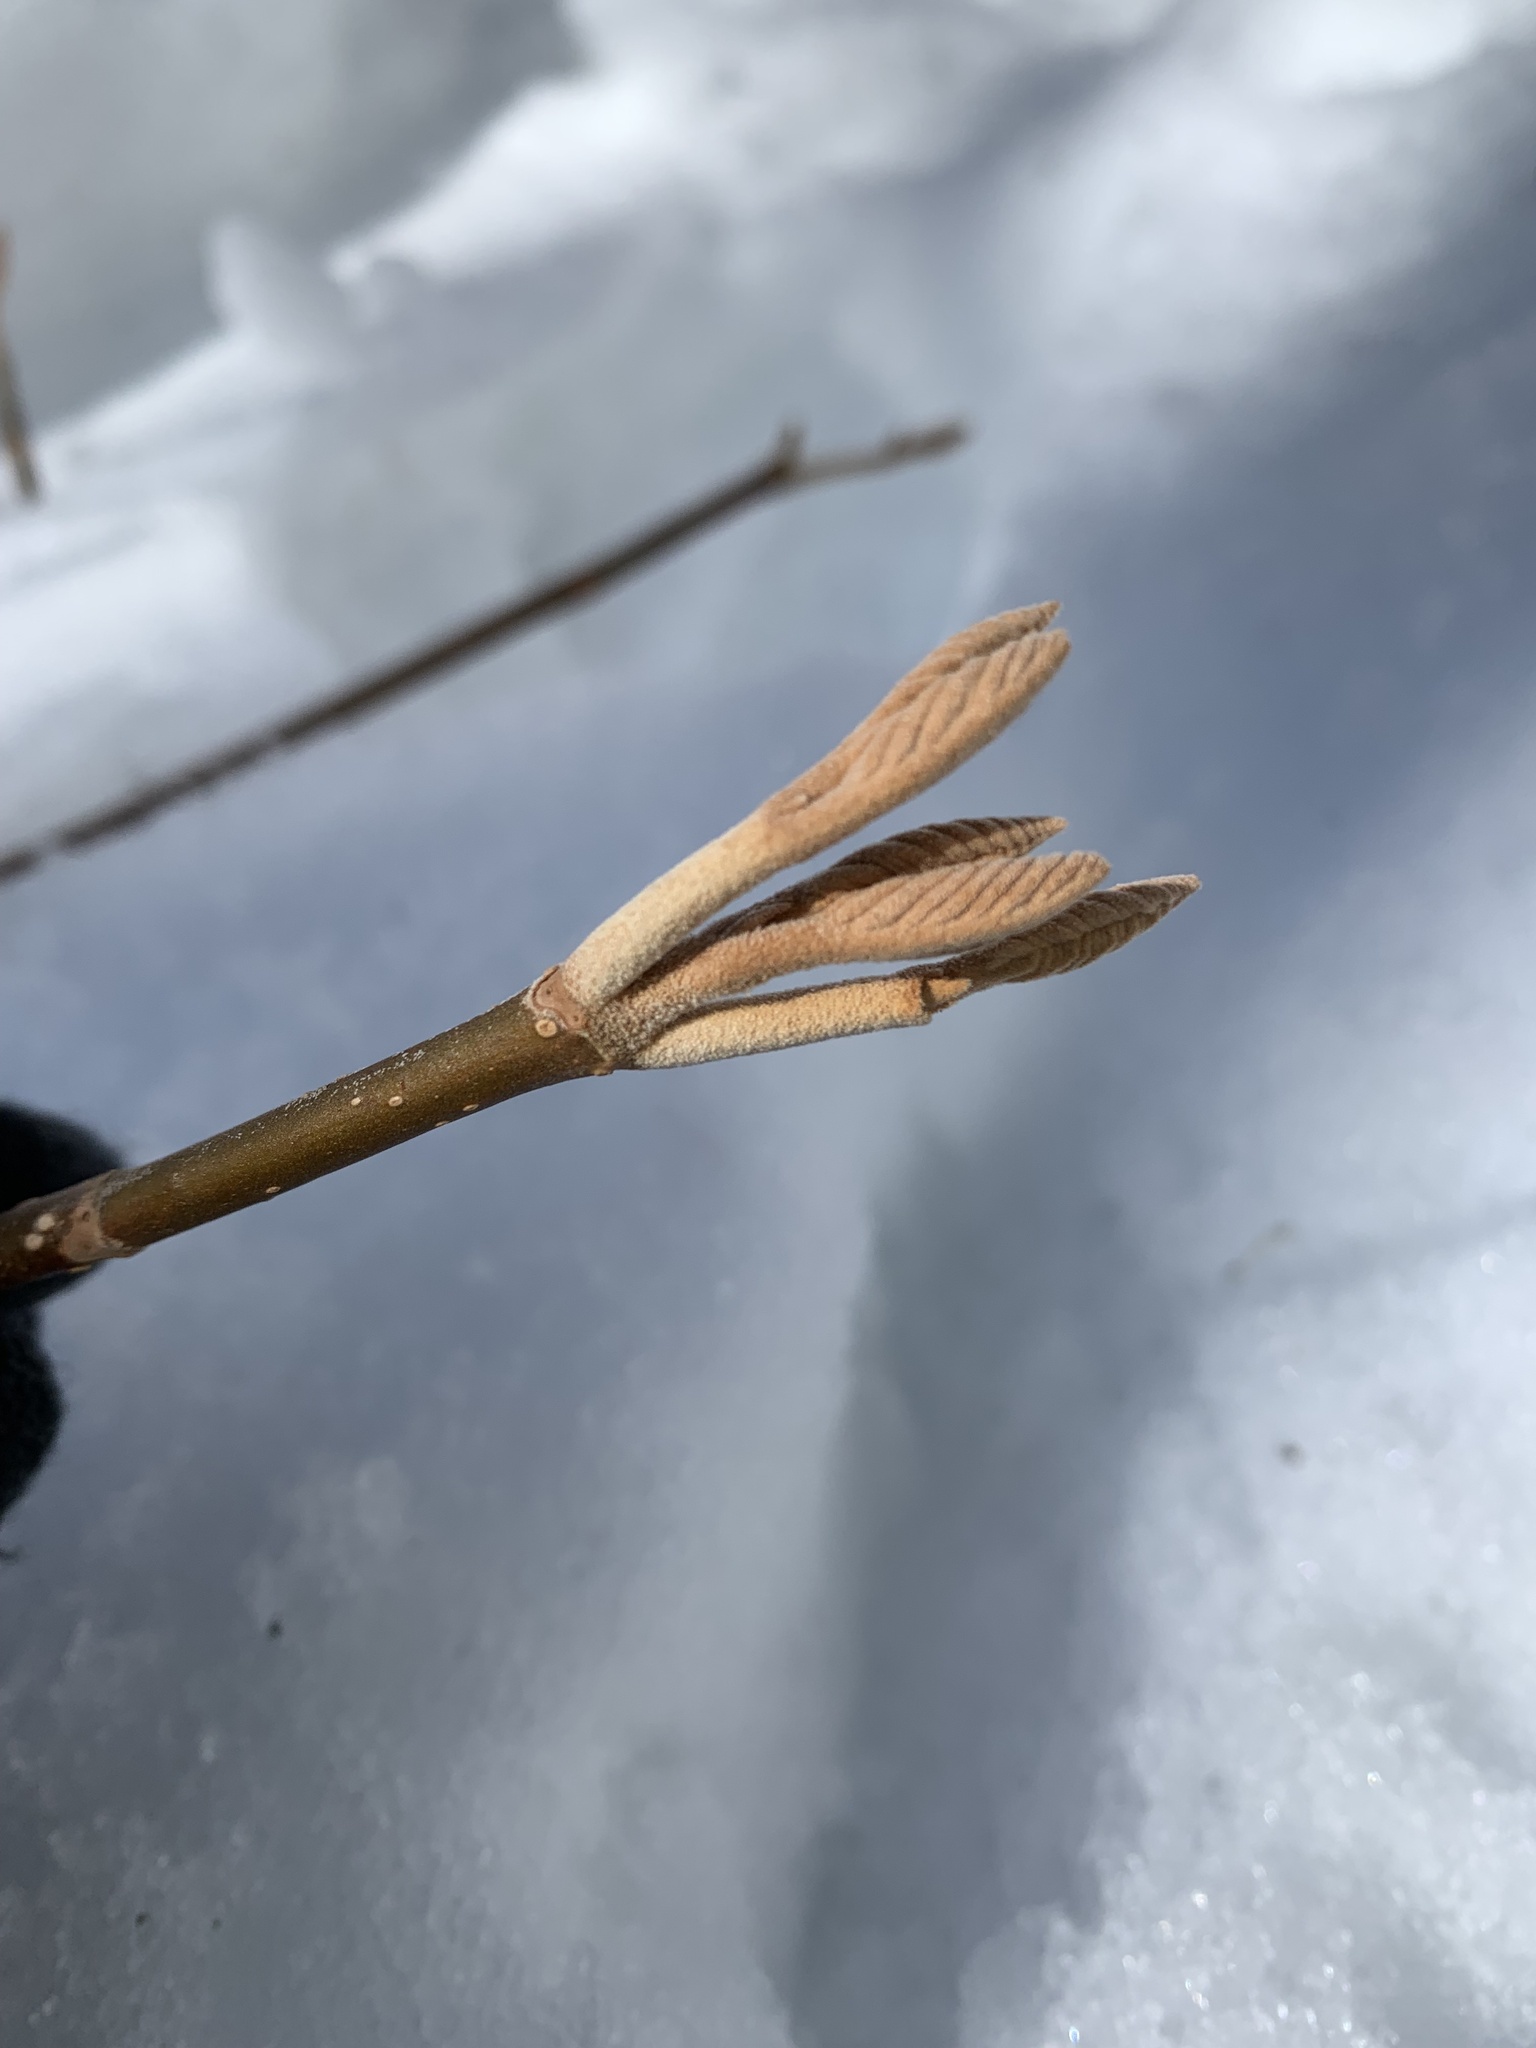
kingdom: Plantae
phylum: Tracheophyta
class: Magnoliopsida
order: Dipsacales
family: Viburnaceae
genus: Viburnum
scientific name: Viburnum lantanoides
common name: Hobblebush
